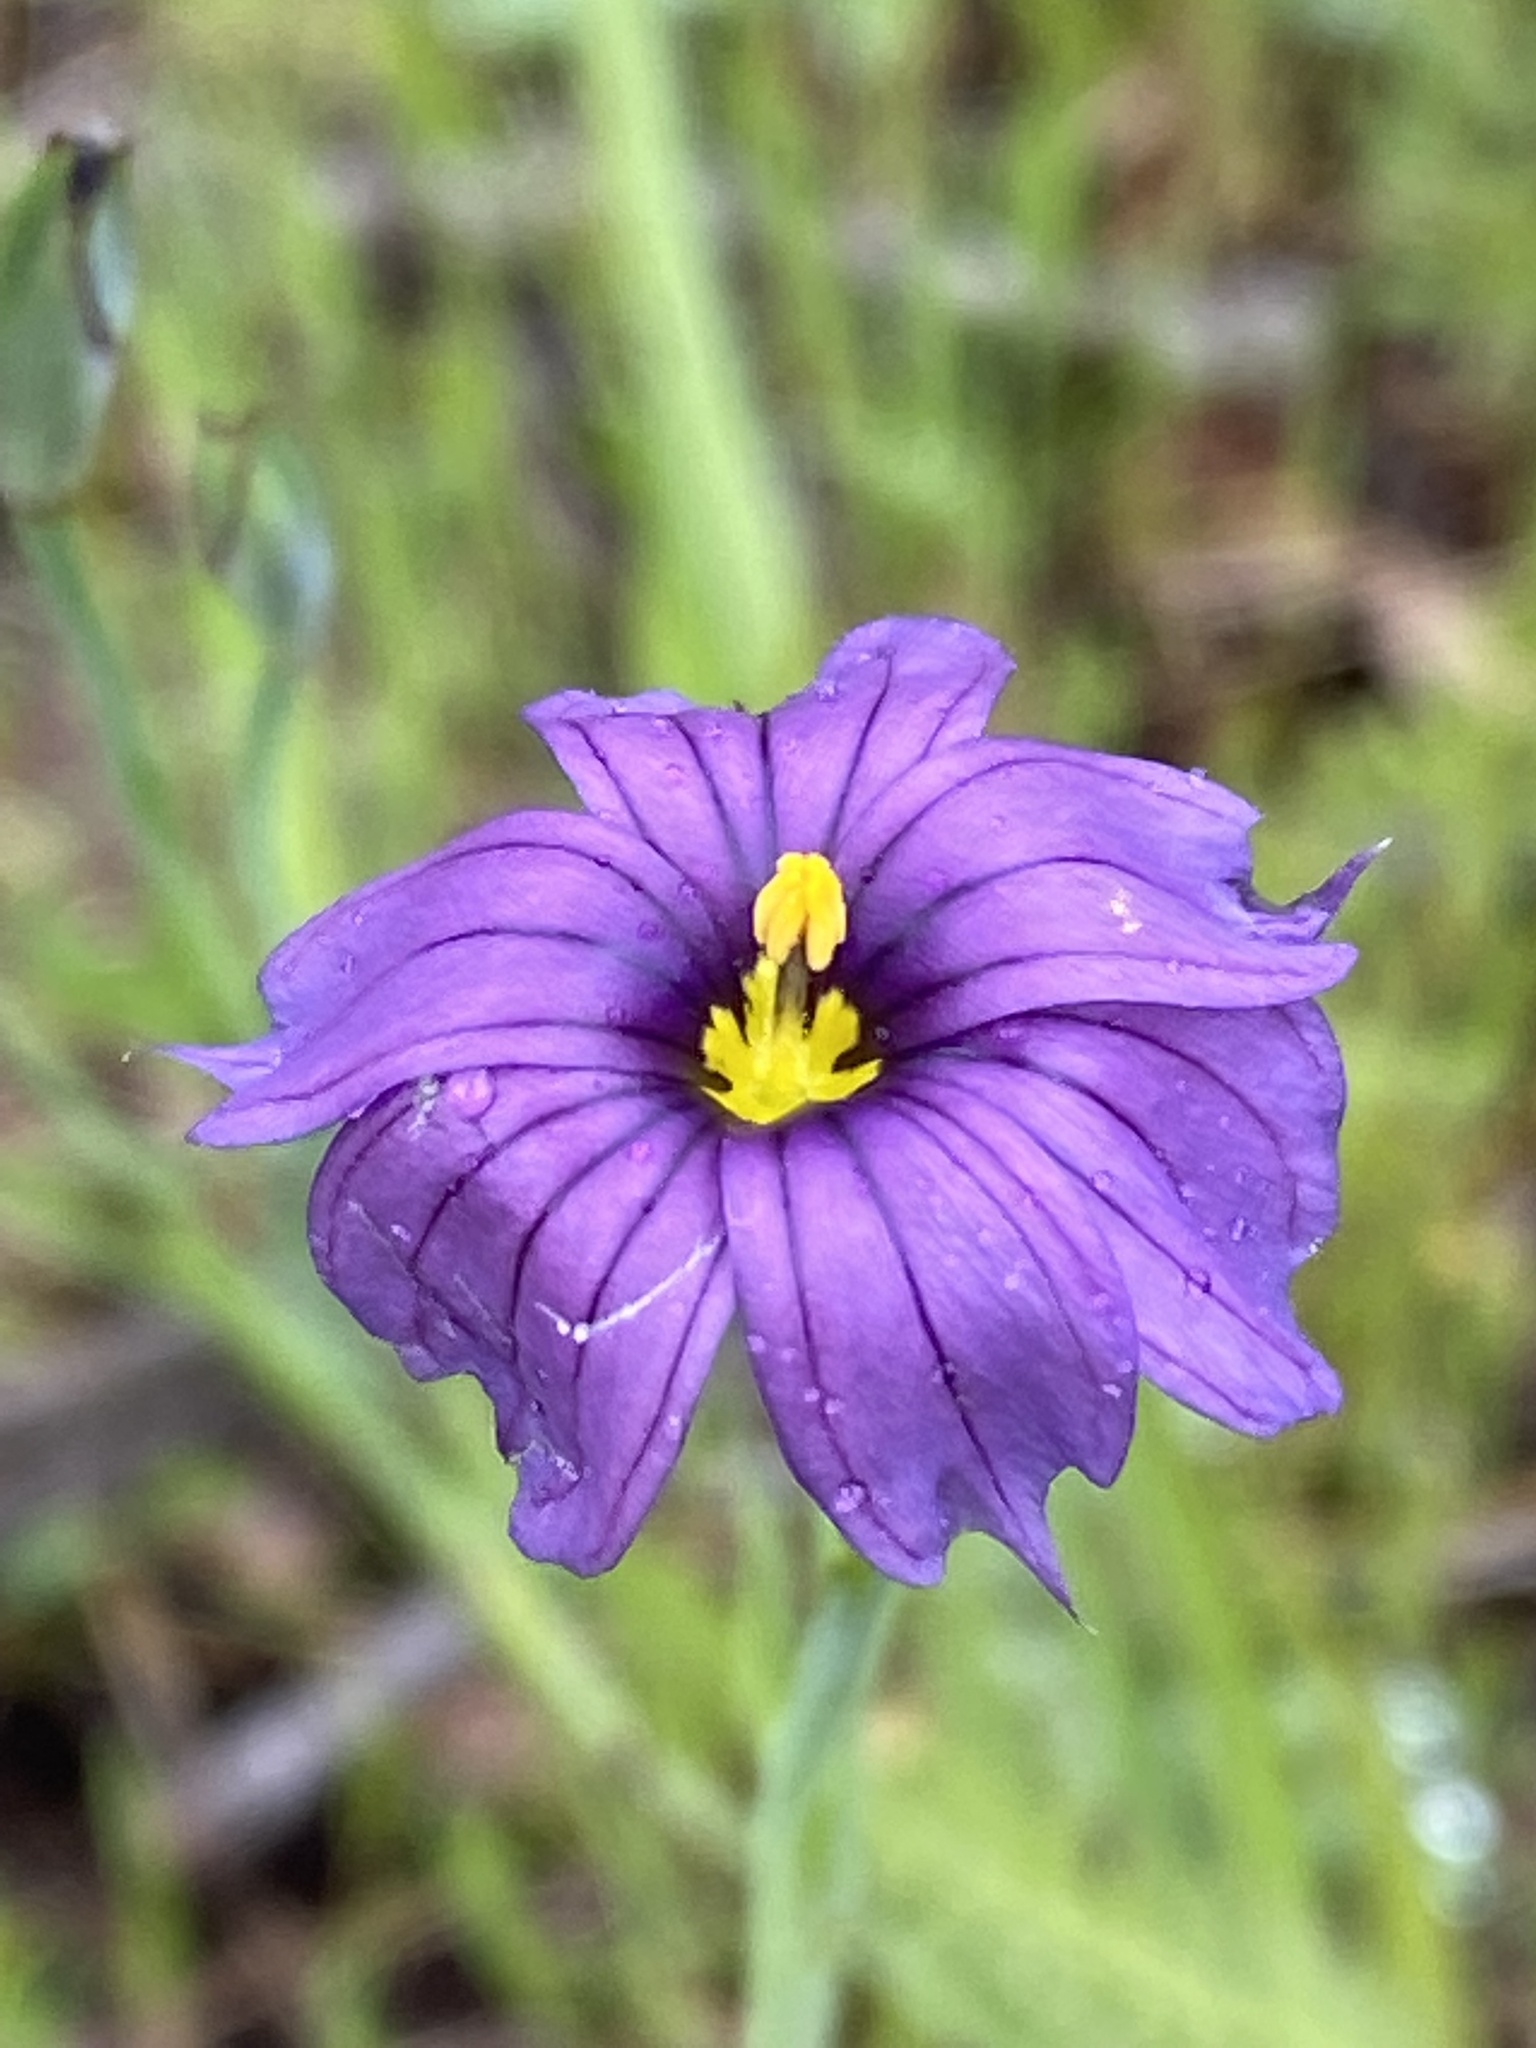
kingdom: Plantae
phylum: Tracheophyta
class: Liliopsida
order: Asparagales
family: Iridaceae
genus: Sisyrinchium
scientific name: Sisyrinchium bellum
